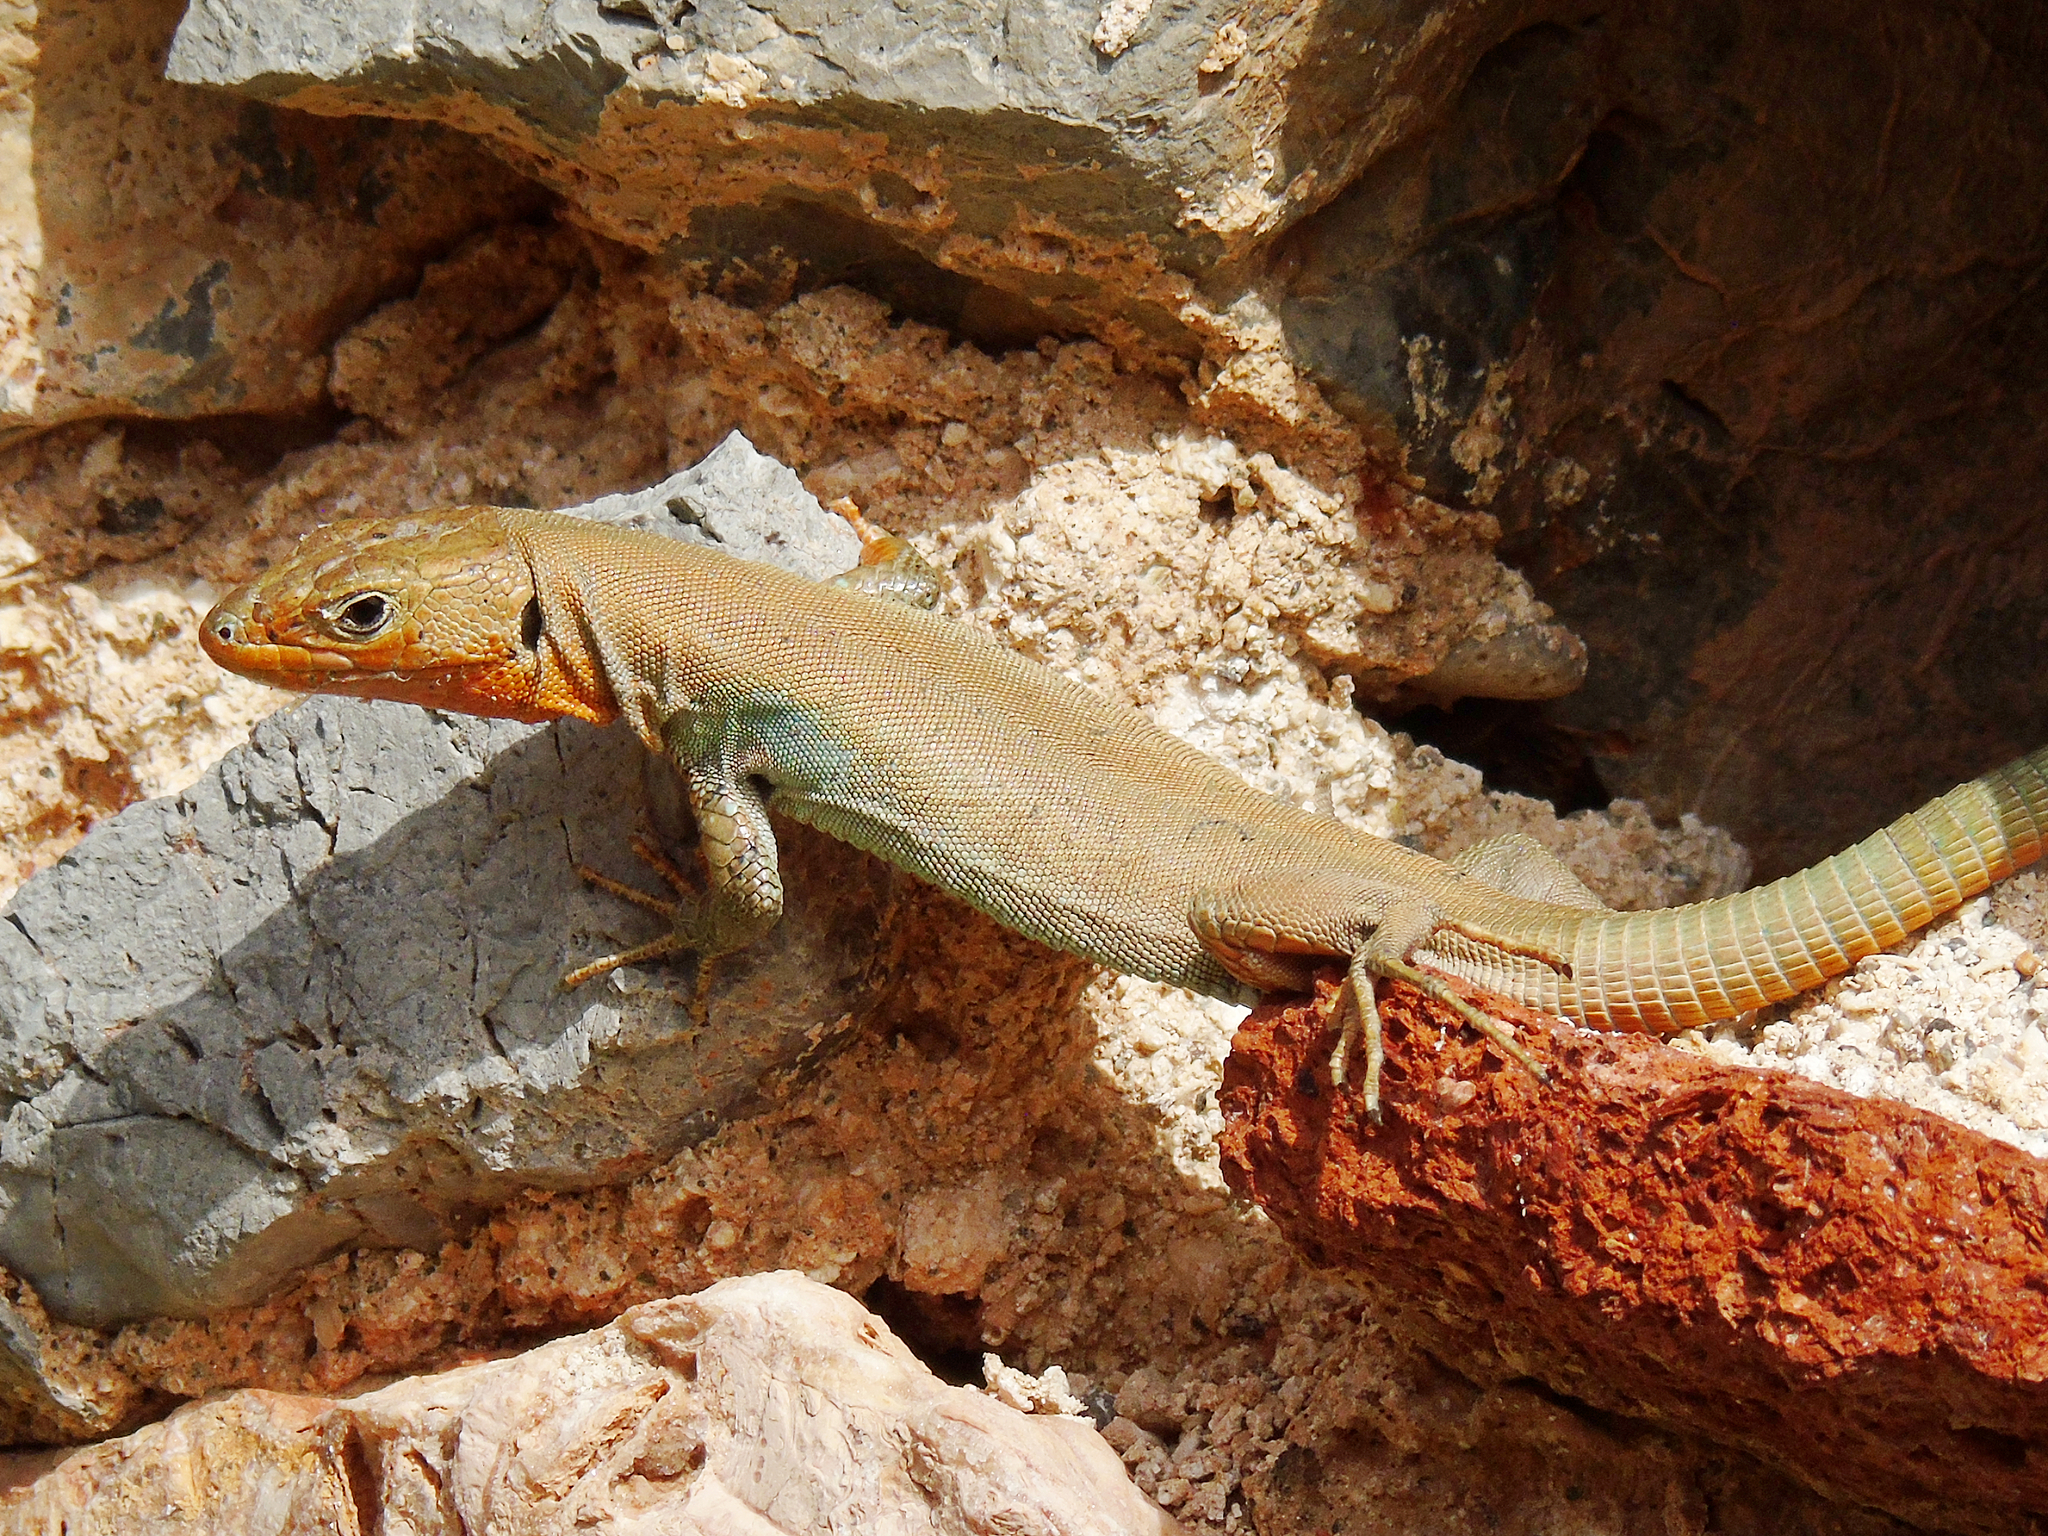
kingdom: Animalia
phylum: Chordata
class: Squamata
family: Lacertidae
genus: Podarcis
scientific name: Podarcis peloponnesiacus
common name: Peloponnese wall lizard
